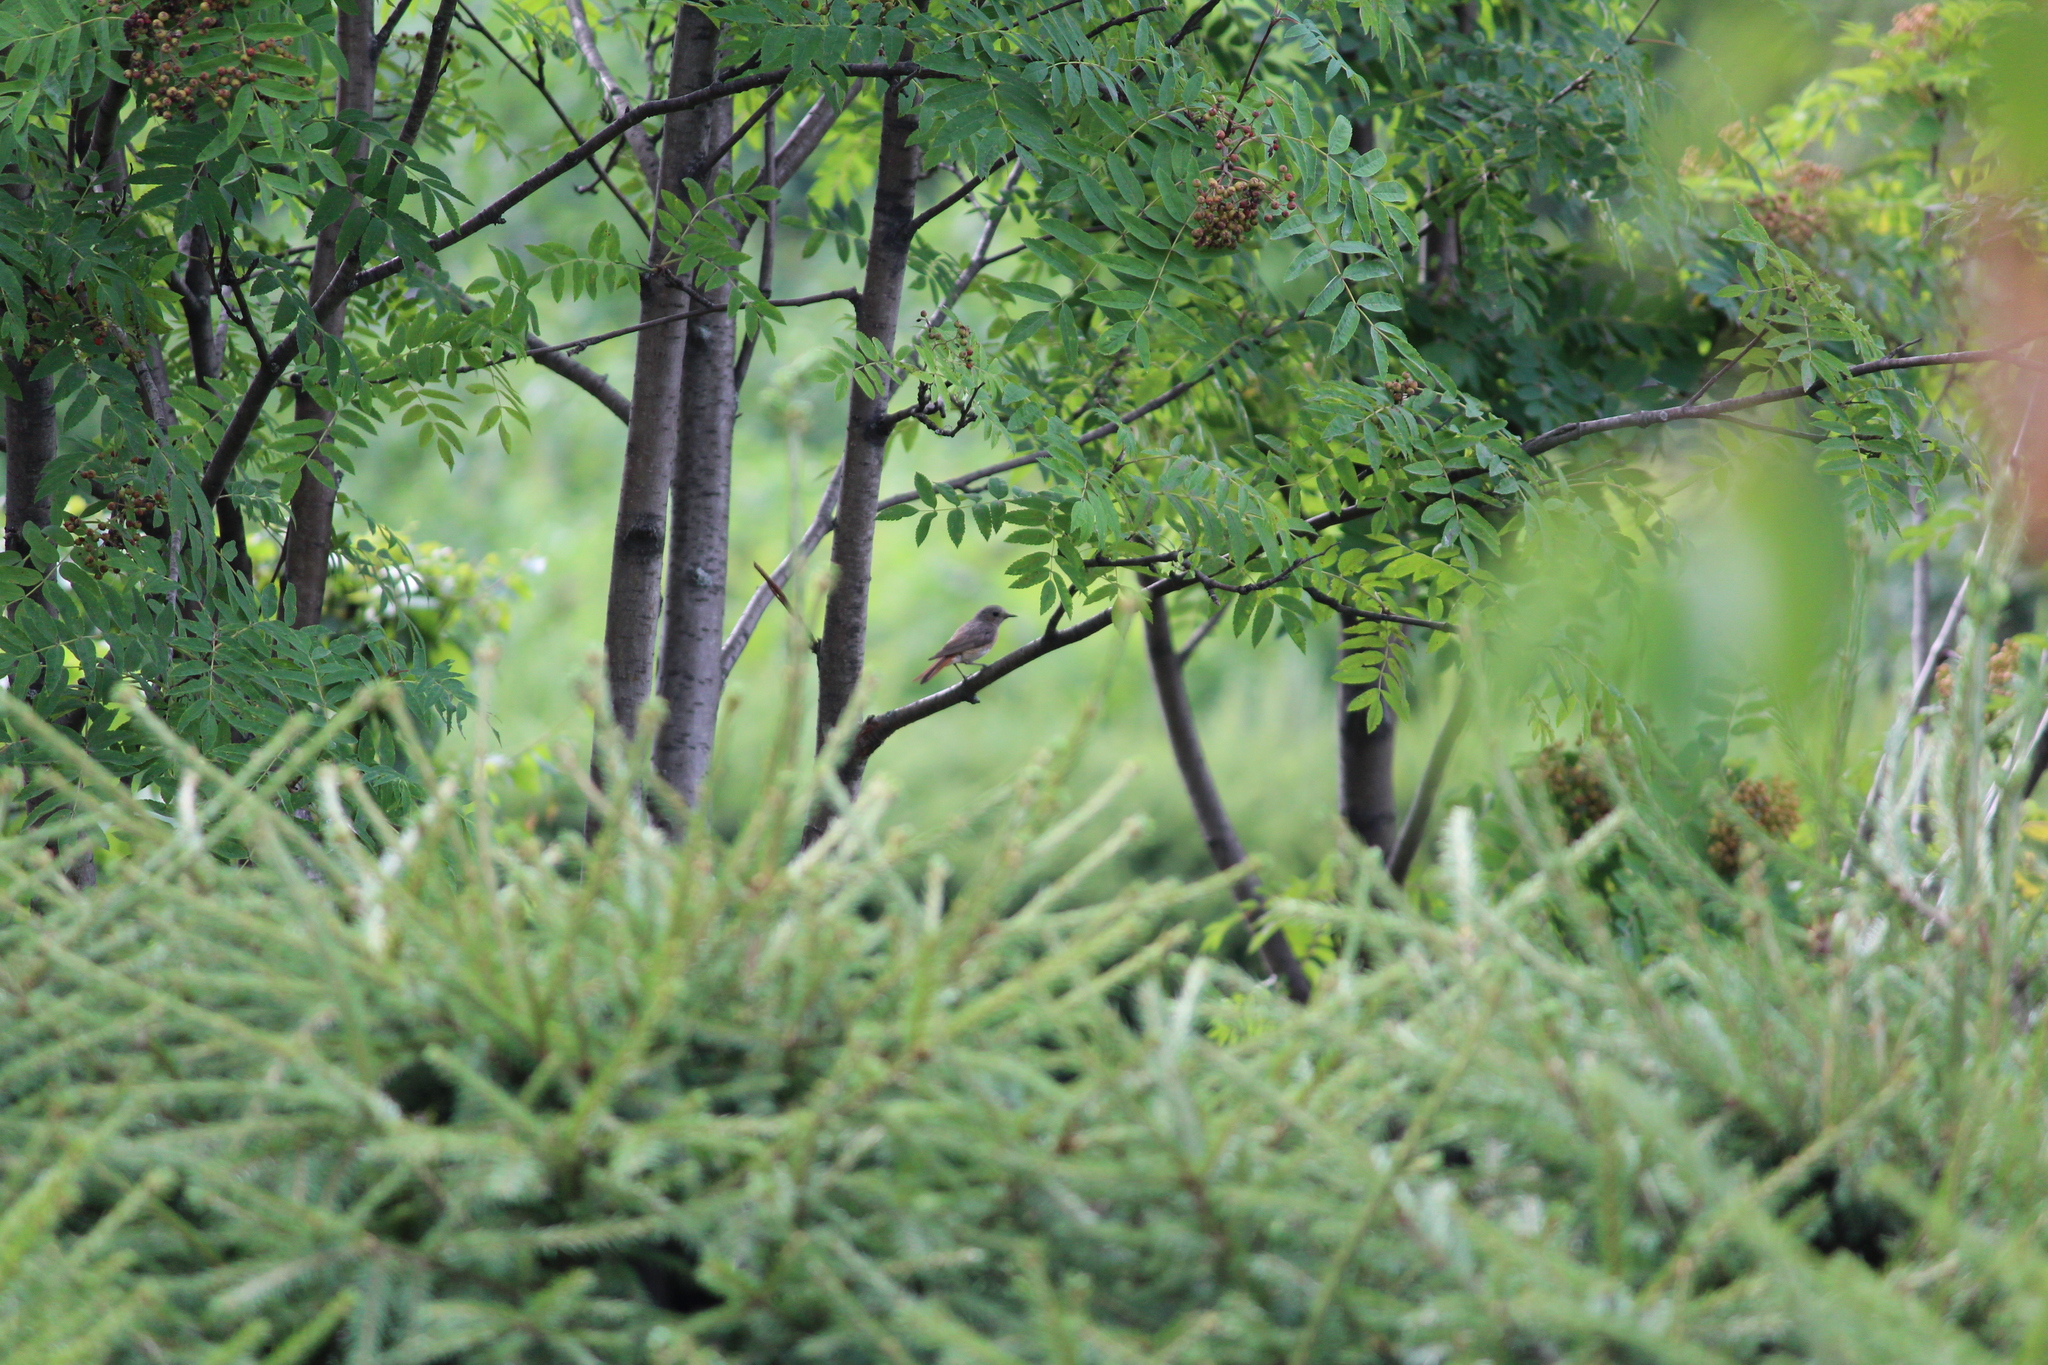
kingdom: Animalia
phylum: Chordata
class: Aves
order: Passeriformes
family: Muscicapidae
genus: Phoenicurus
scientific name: Phoenicurus phoenicurus
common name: Common redstart
